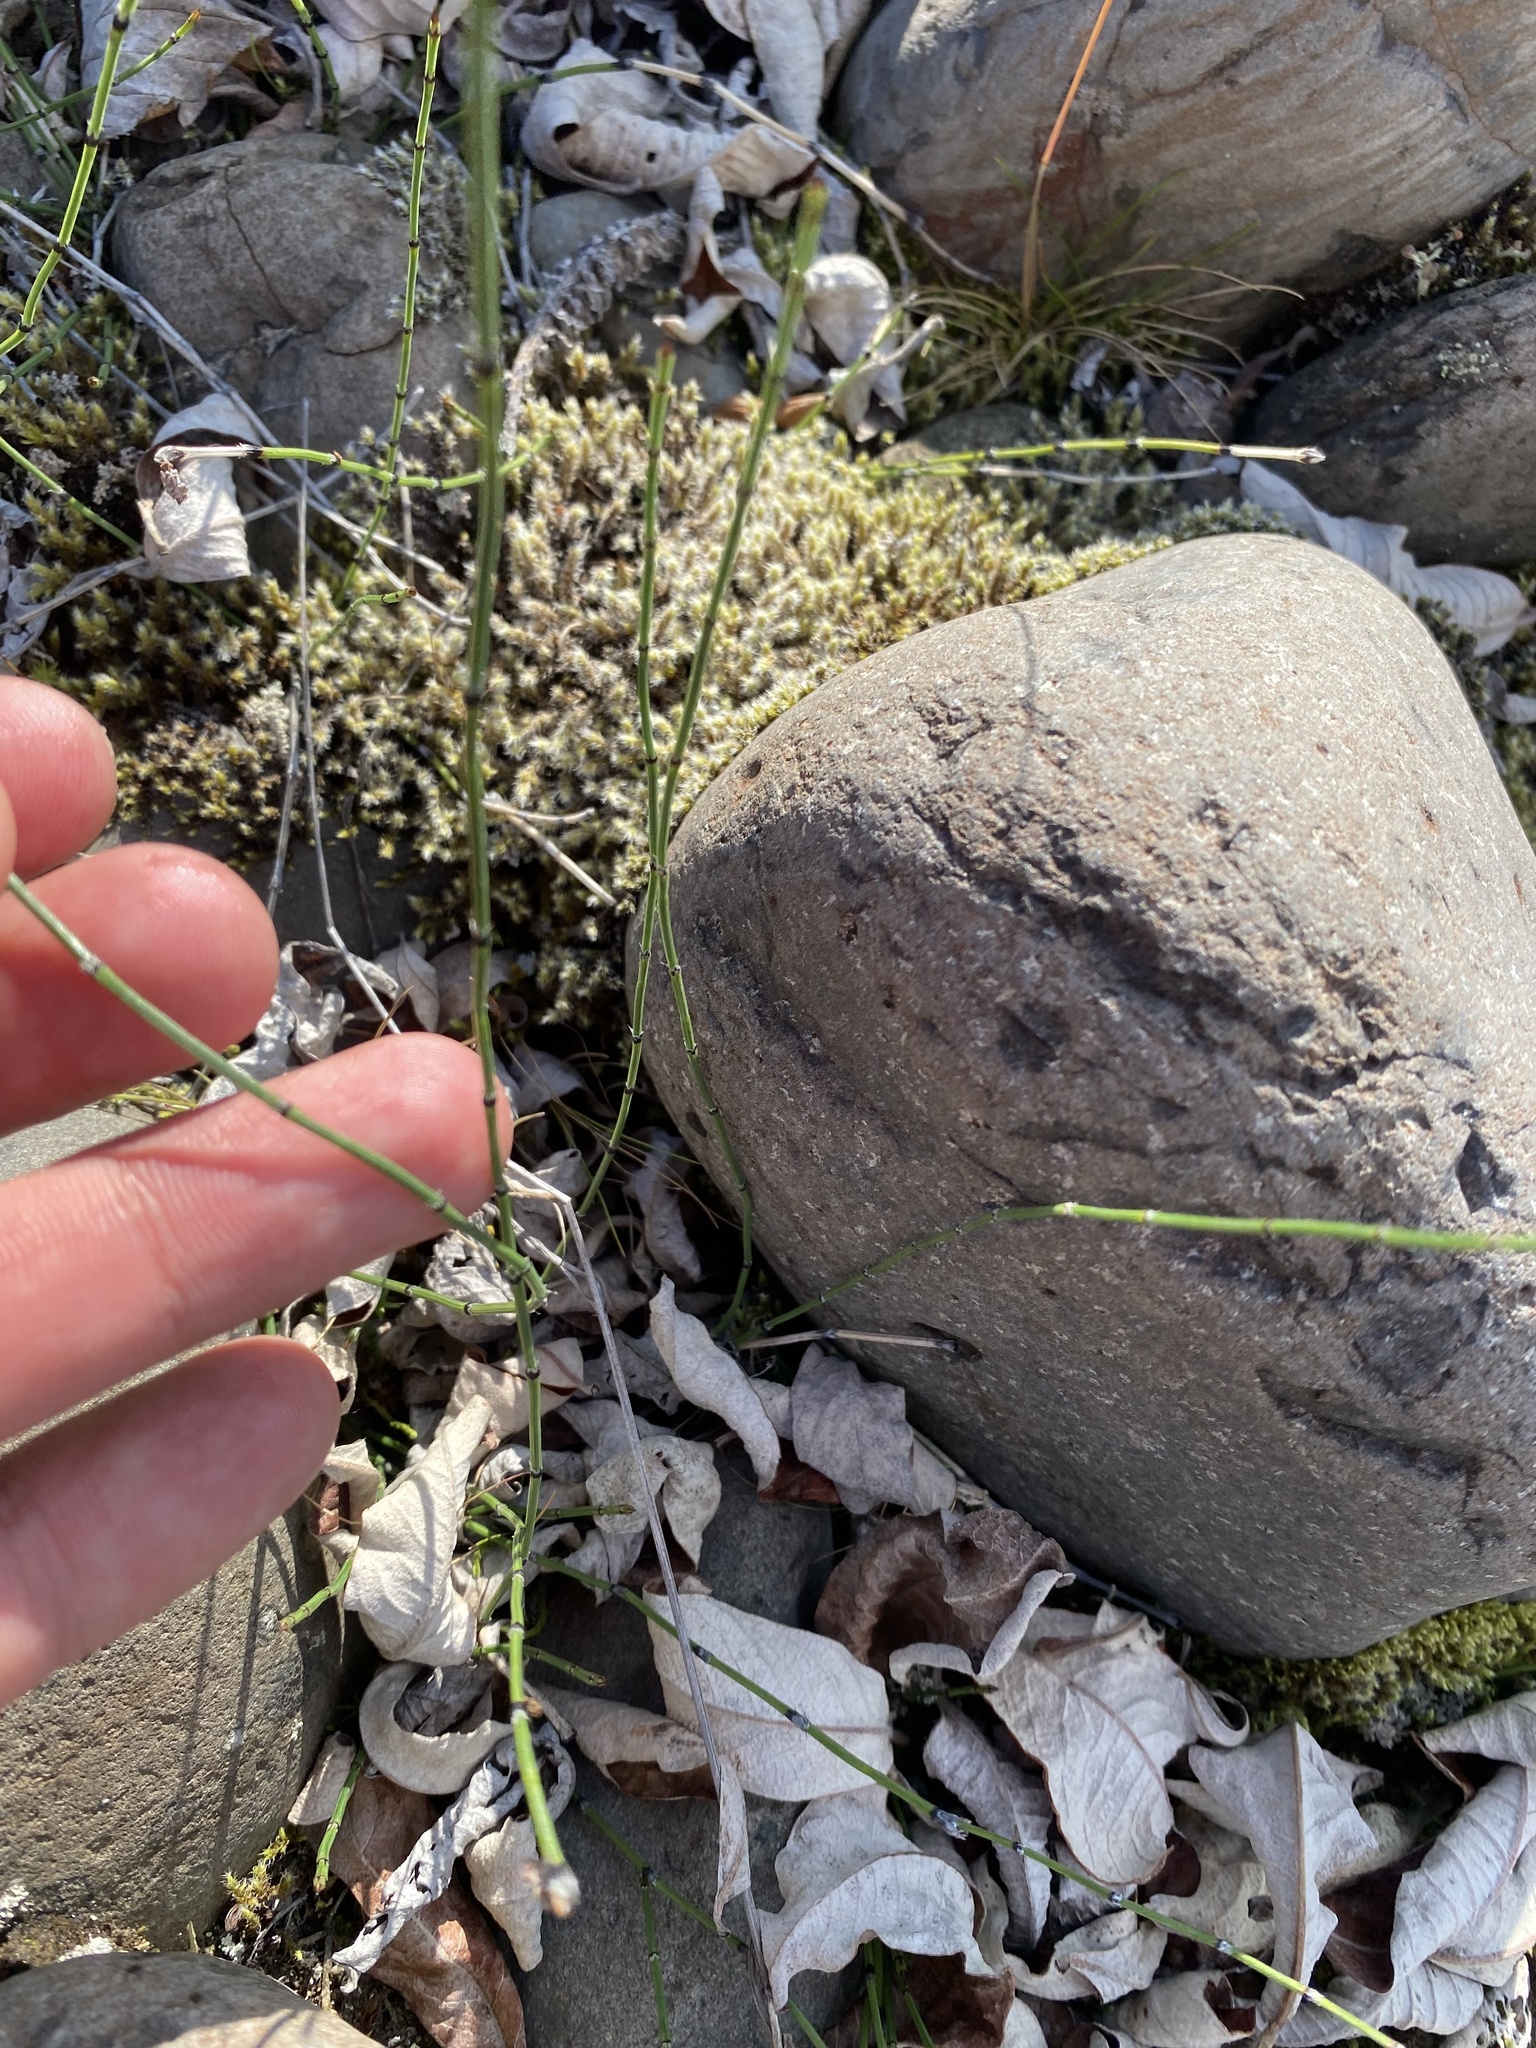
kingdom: Plantae
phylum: Tracheophyta
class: Polypodiopsida
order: Equisetales
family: Equisetaceae
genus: Equisetum
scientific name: Equisetum variegatum
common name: Variegated horsetail
